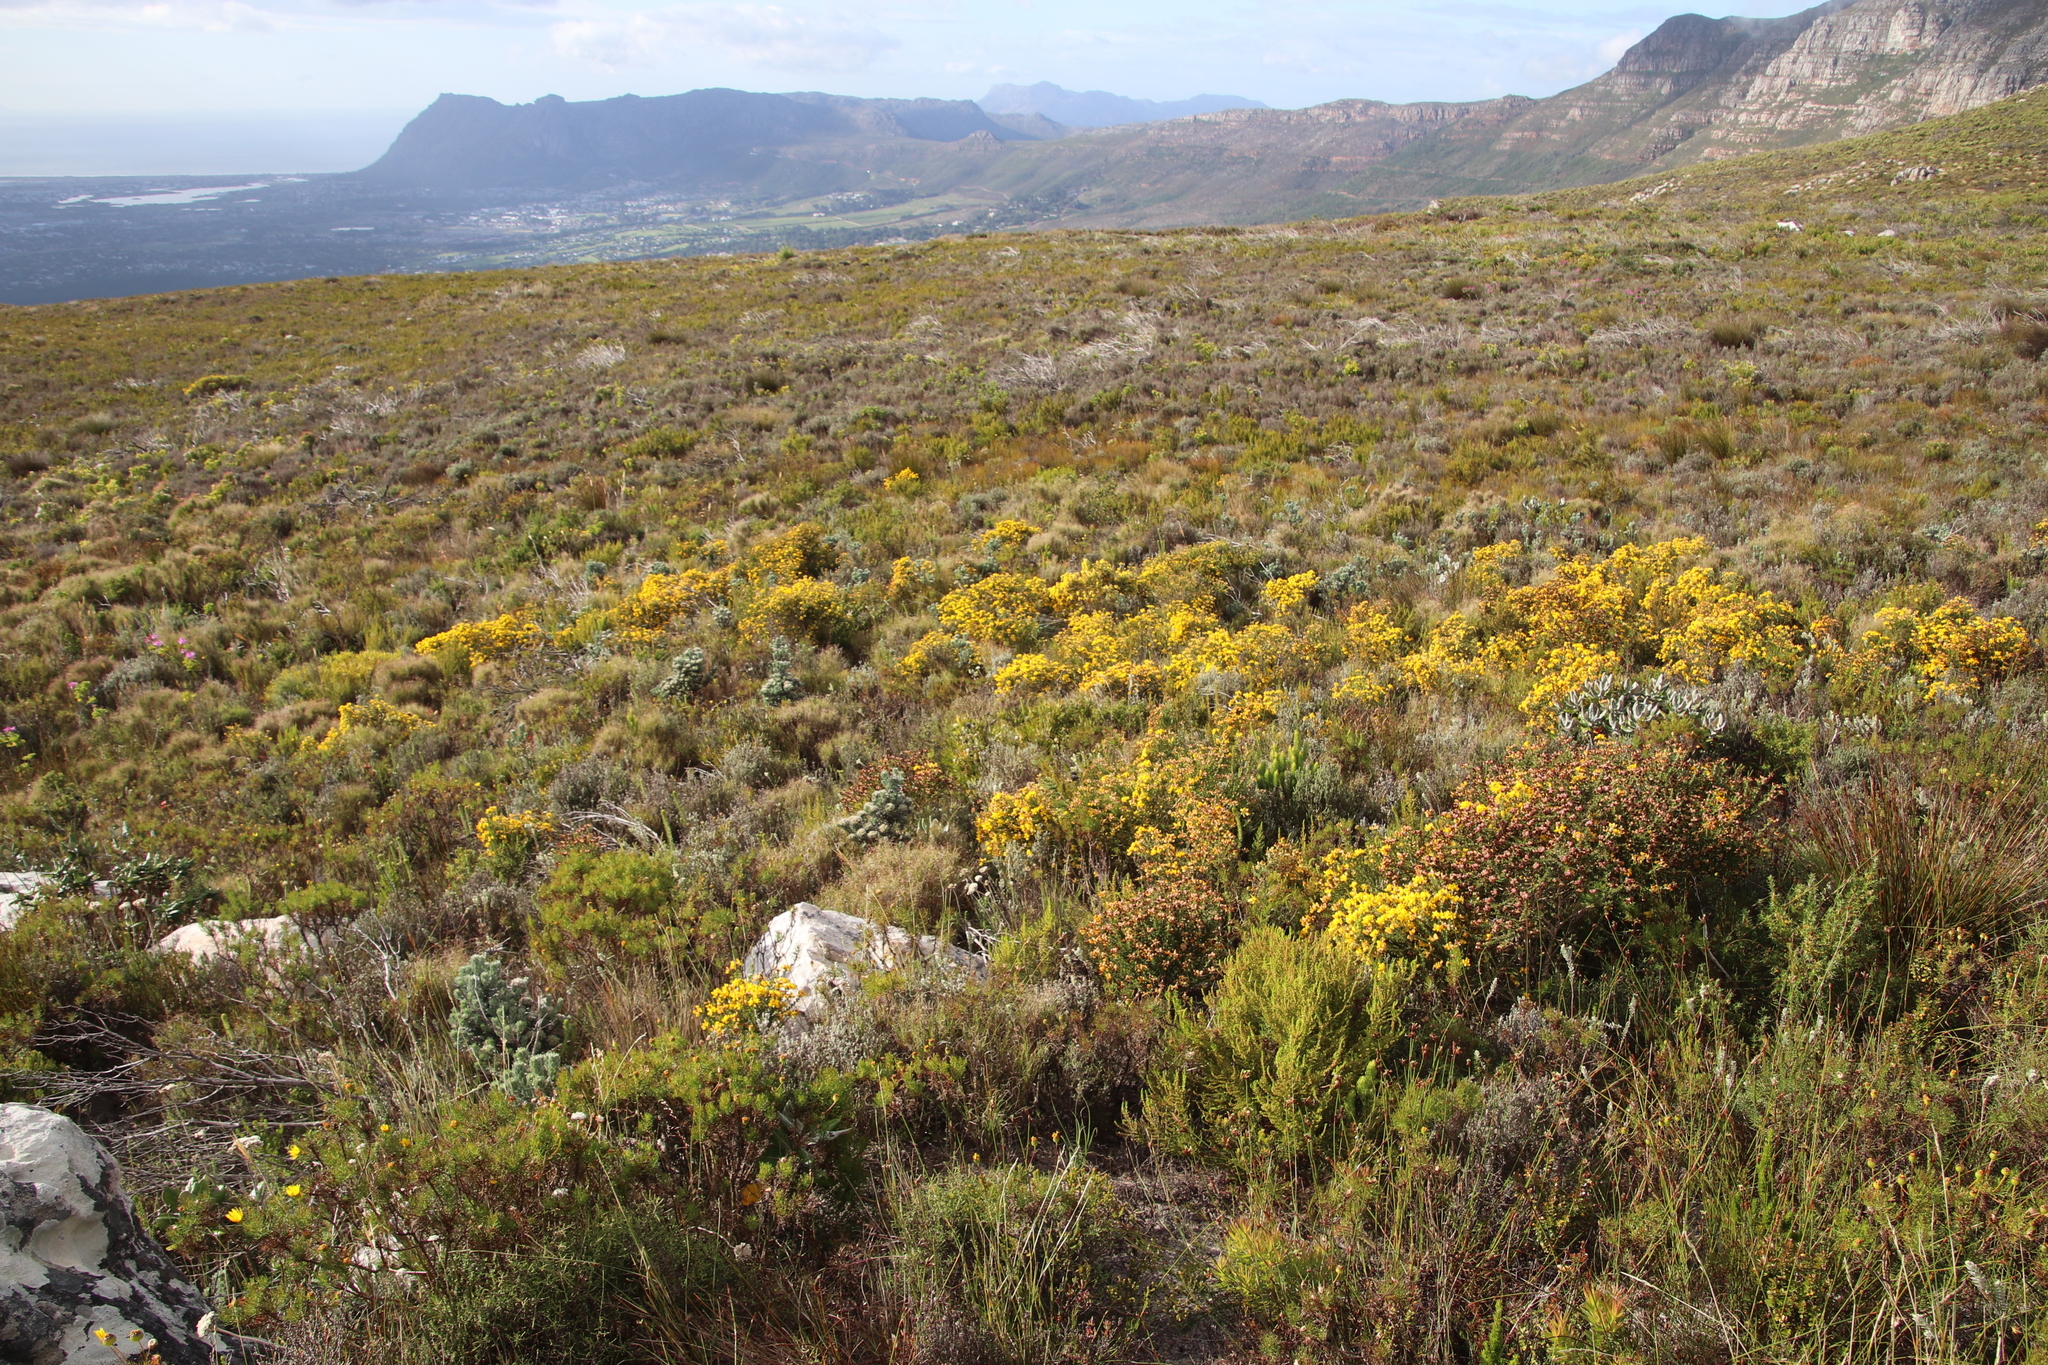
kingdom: Plantae
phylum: Tracheophyta
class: Magnoliopsida
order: Fabales
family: Fabaceae
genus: Aspalathus
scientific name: Aspalathus carnosa
